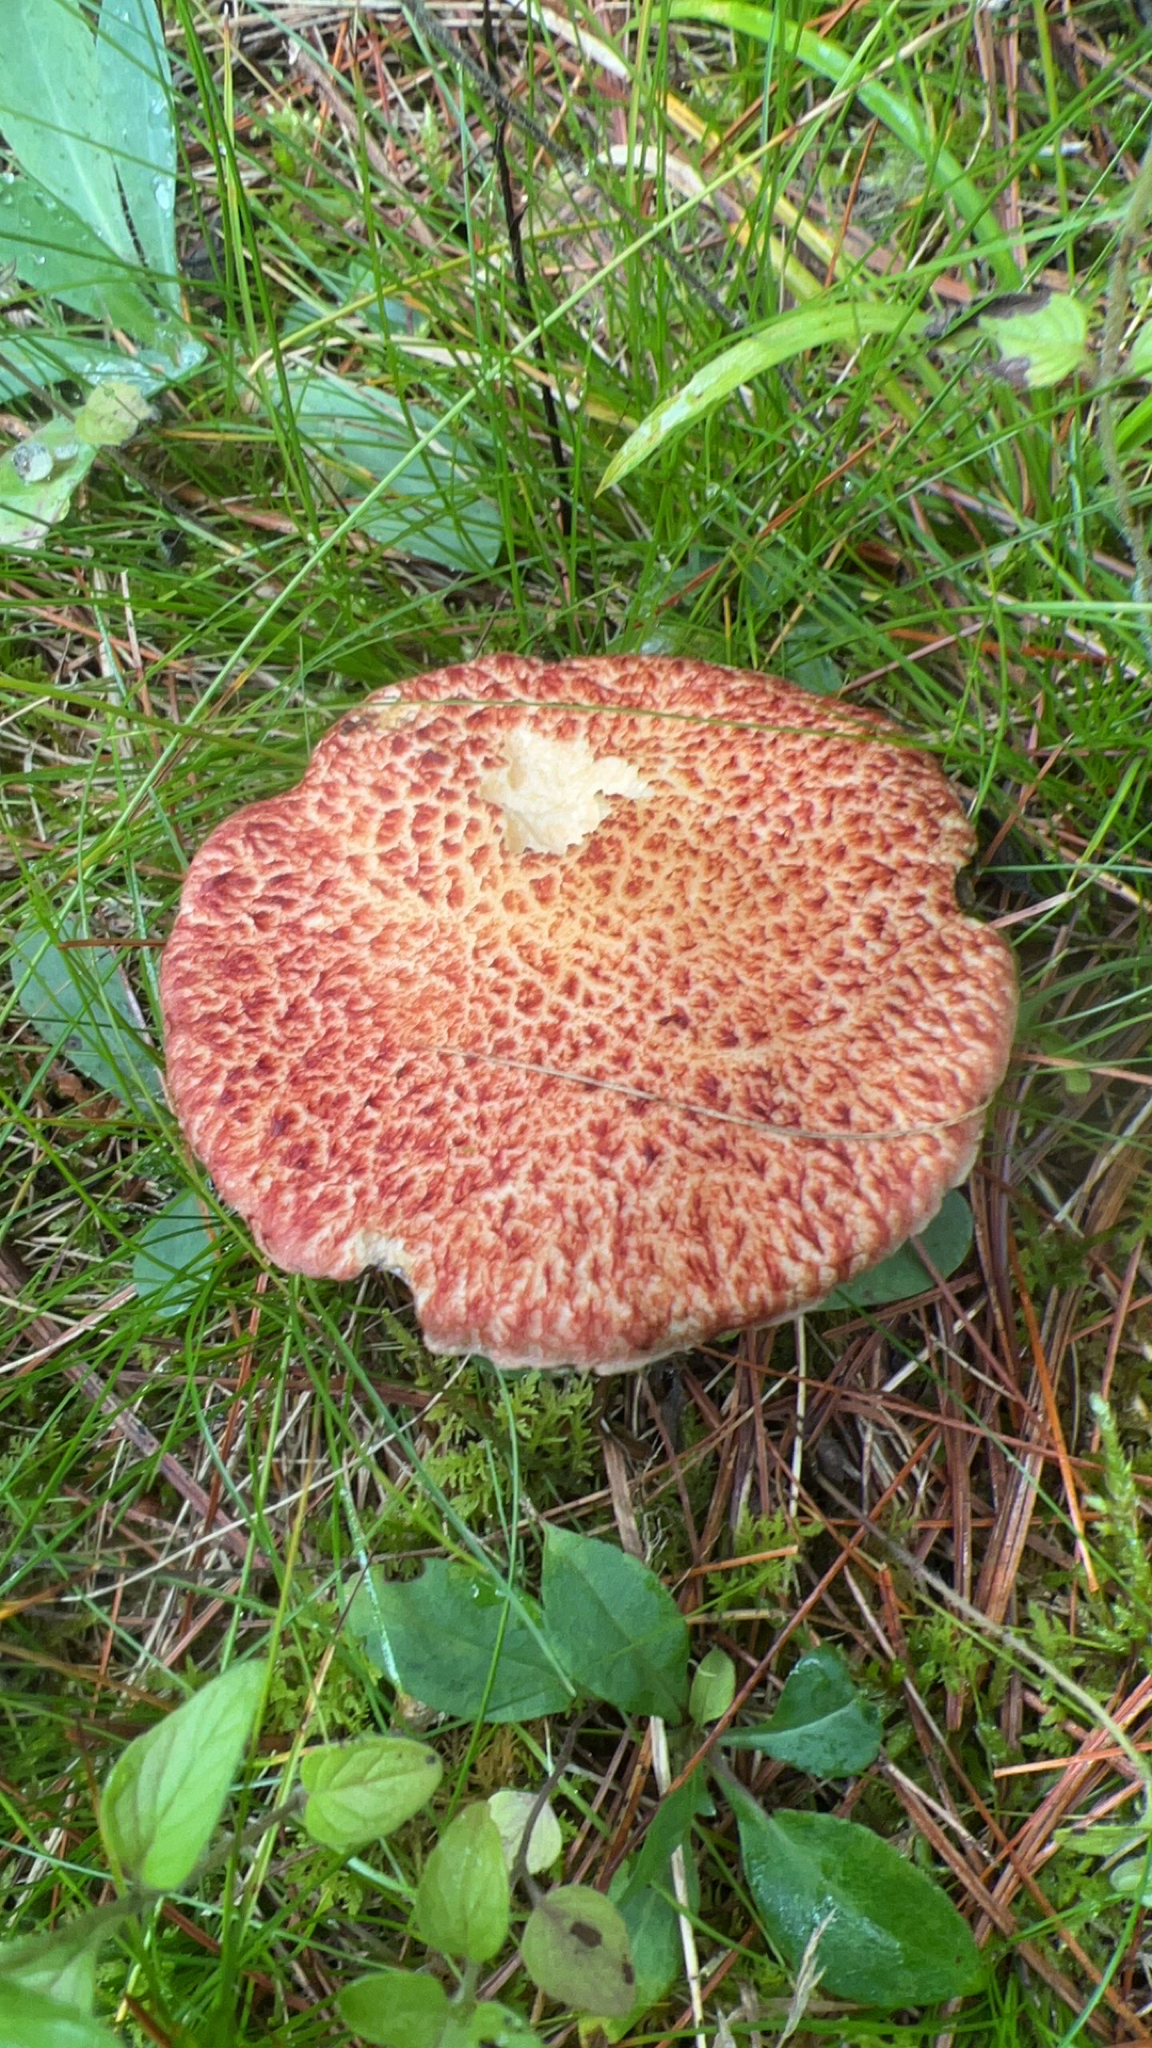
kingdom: Fungi
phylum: Basidiomycota
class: Agaricomycetes
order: Boletales
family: Suillaceae
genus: Suillus
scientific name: Suillus spraguei
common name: Painted suillus
